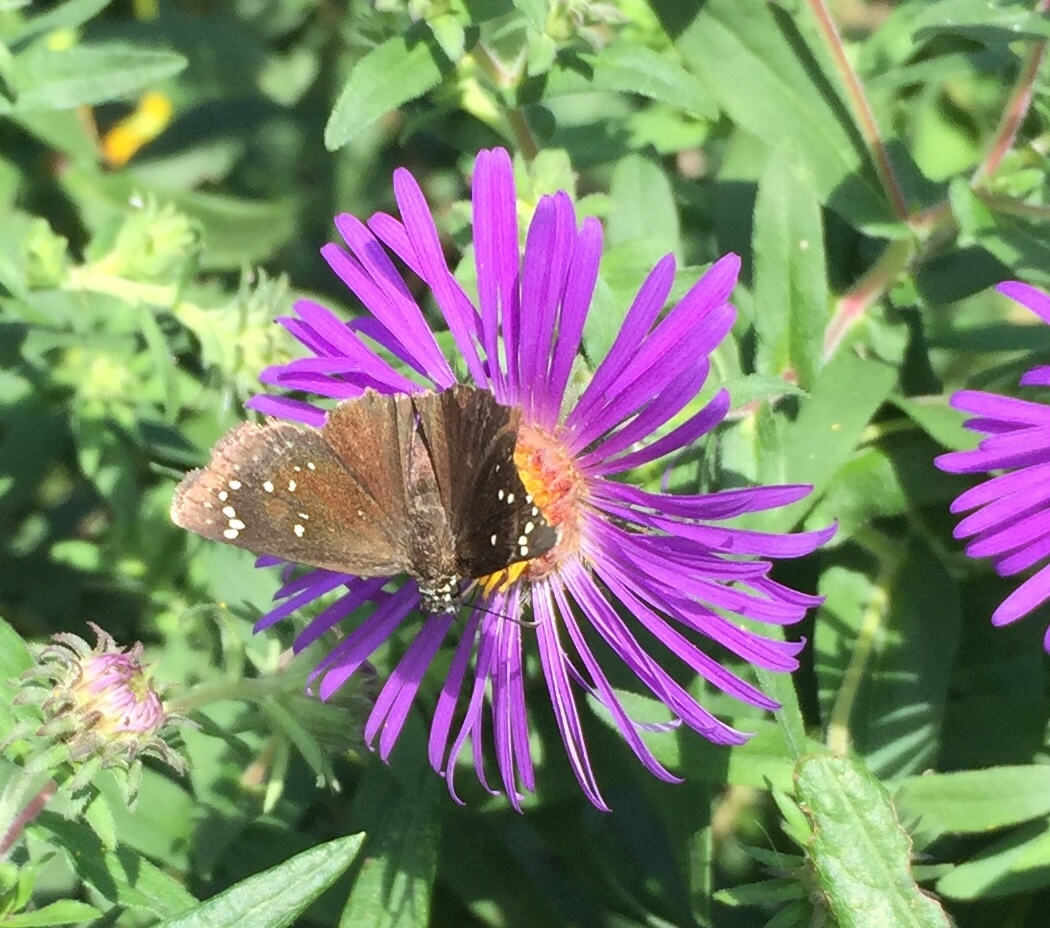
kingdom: Animalia
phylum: Arthropoda
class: Insecta
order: Lepidoptera
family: Hesperiidae
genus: Pholisora
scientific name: Pholisora catullus
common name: Common sootywing
